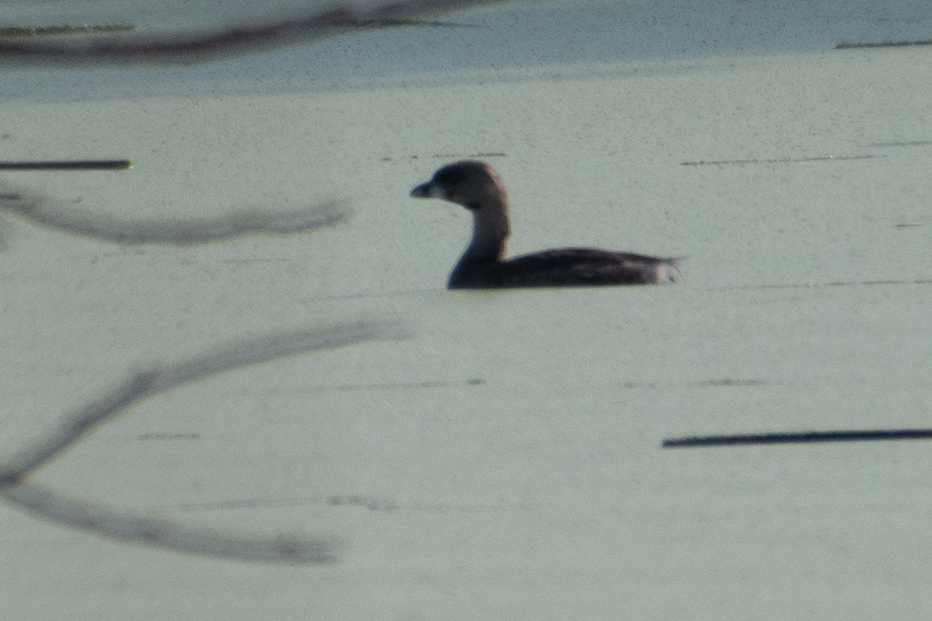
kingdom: Animalia
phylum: Chordata
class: Aves
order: Podicipediformes
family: Podicipedidae
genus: Podilymbus
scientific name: Podilymbus podiceps
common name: Pied-billed grebe
